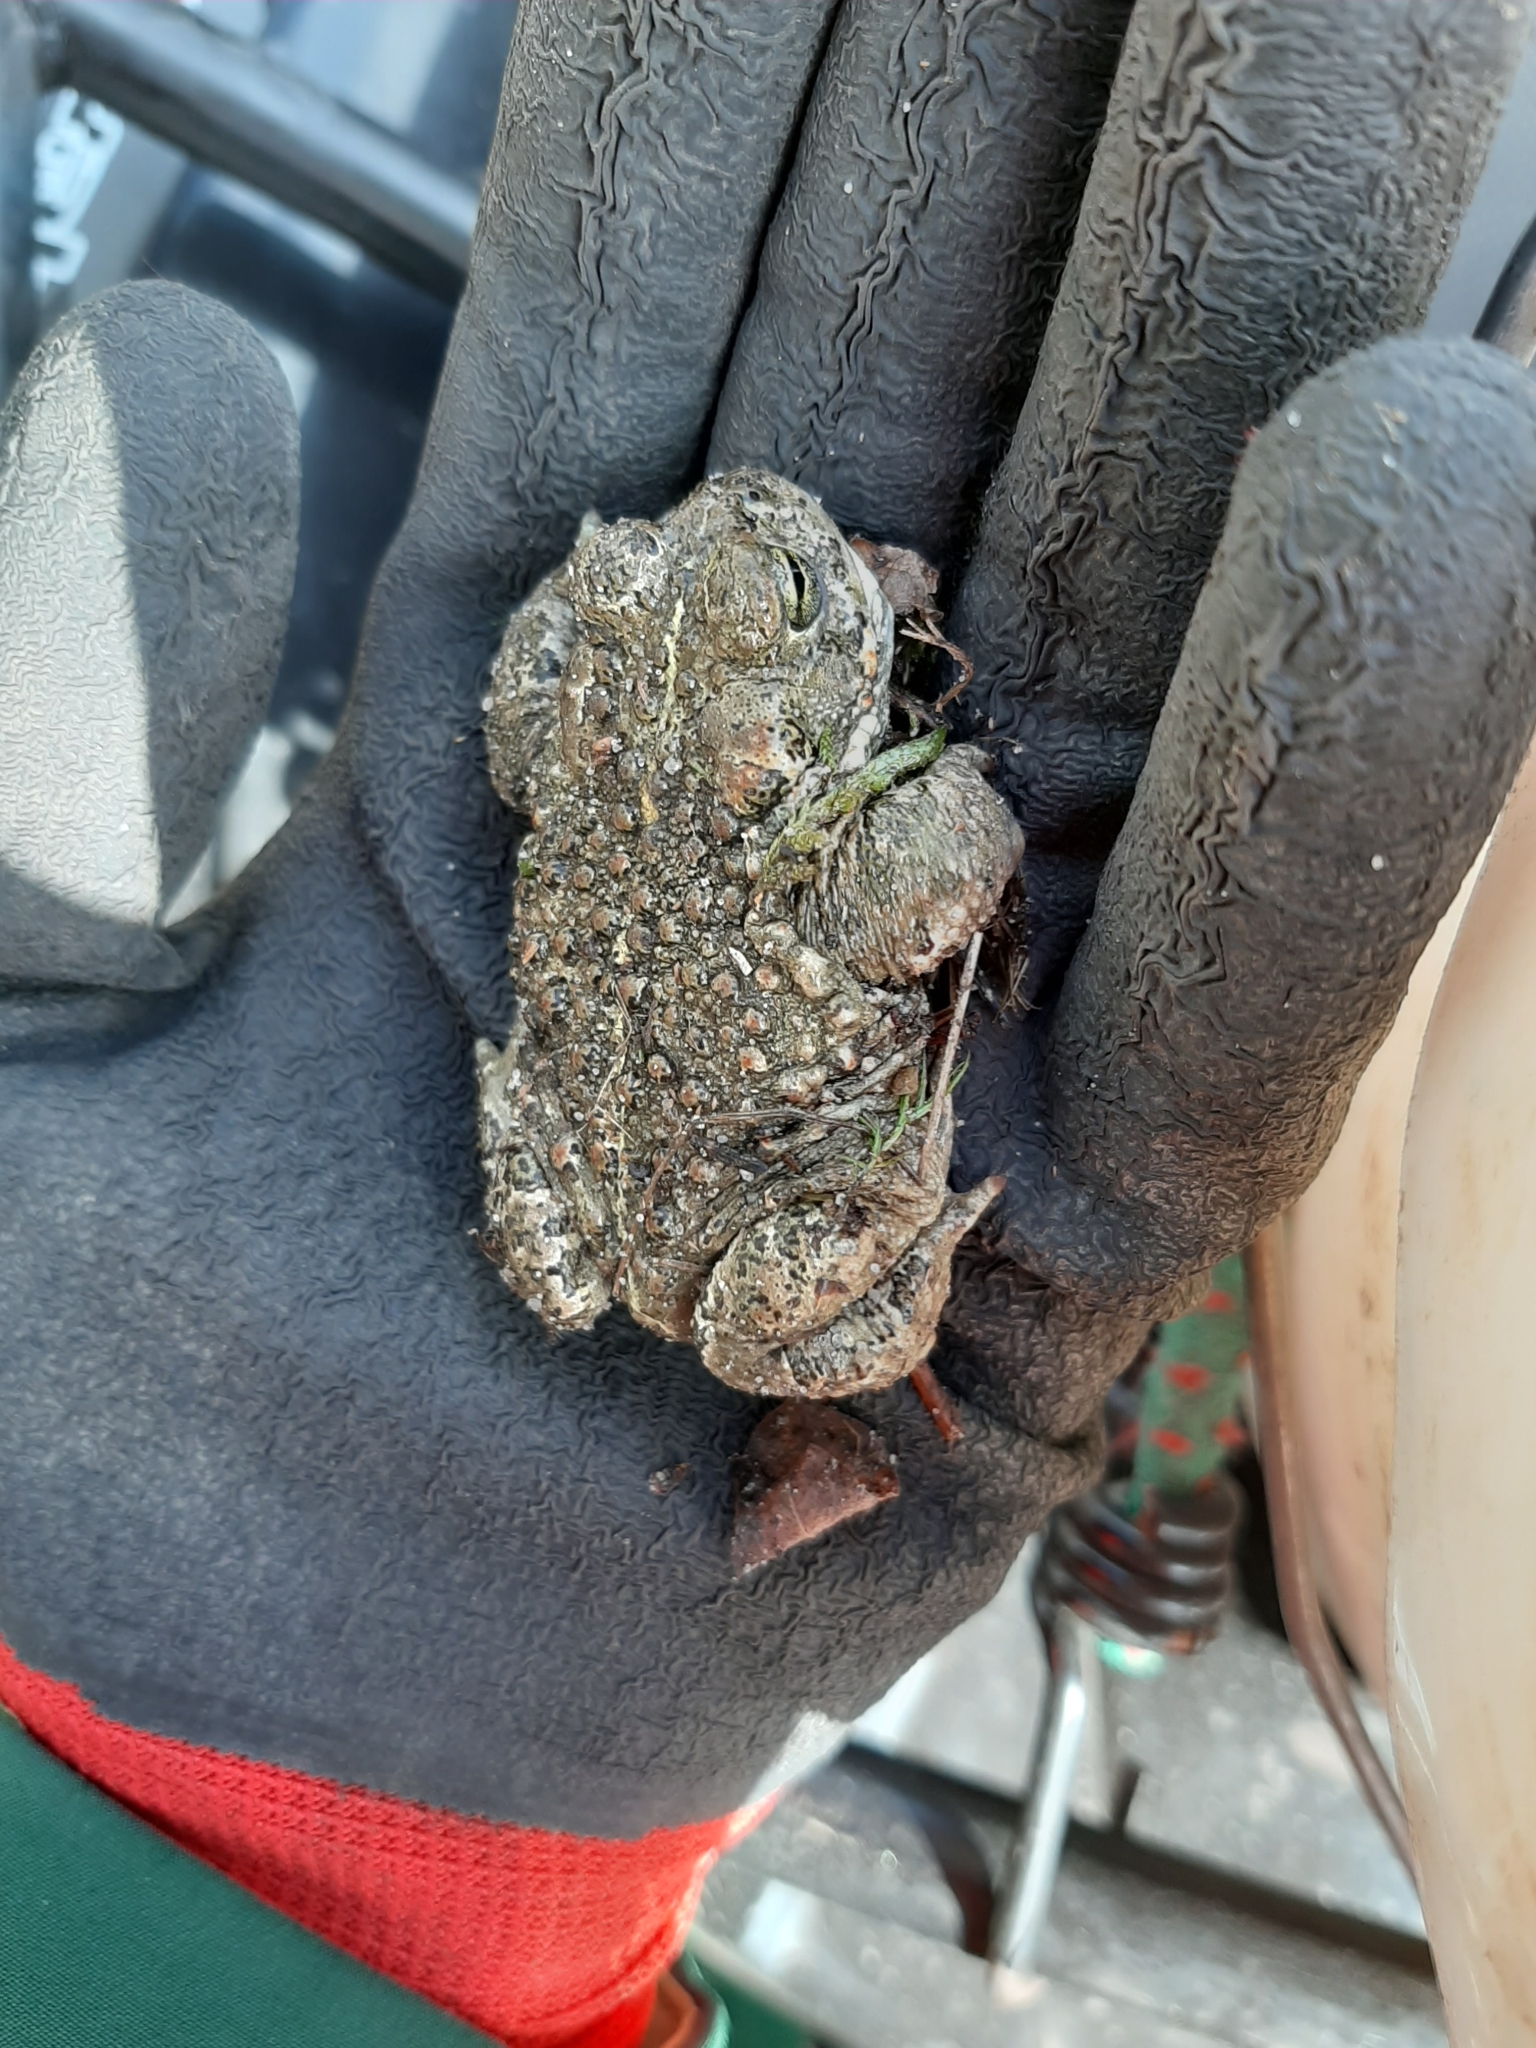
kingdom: Animalia
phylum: Chordata
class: Amphibia
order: Anura
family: Bufonidae
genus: Epidalea
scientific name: Epidalea calamita
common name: Natterjack toad
